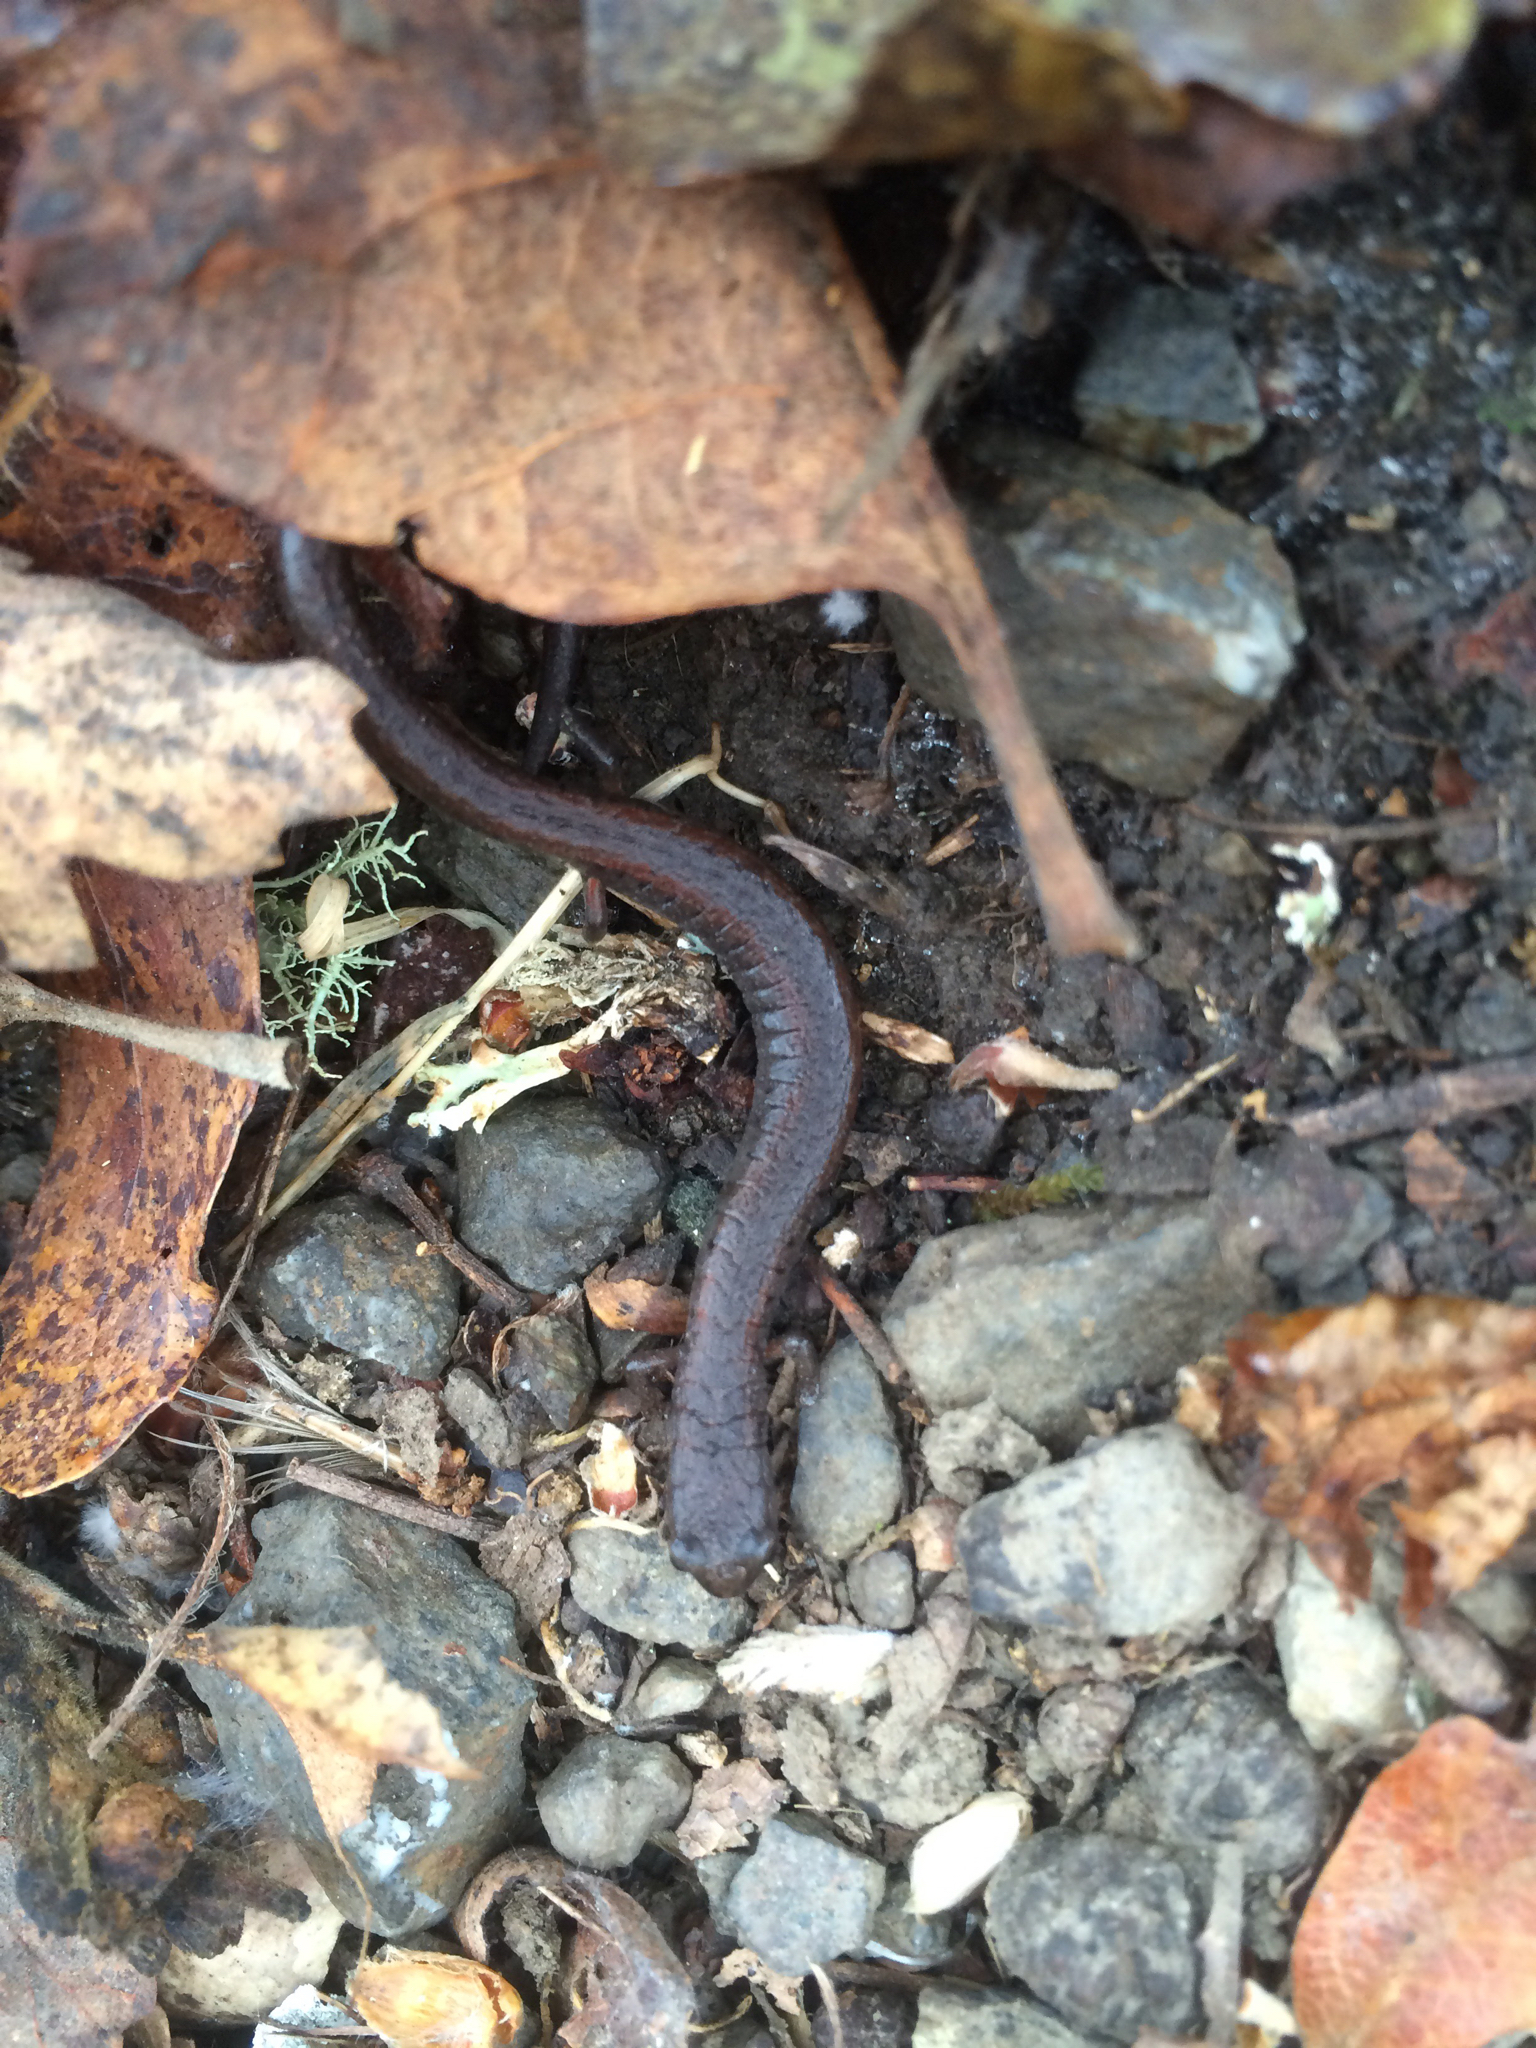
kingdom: Animalia
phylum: Chordata
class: Amphibia
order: Caudata
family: Plethodontidae
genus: Batrachoseps
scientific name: Batrachoseps attenuatus
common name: California slender salamander
